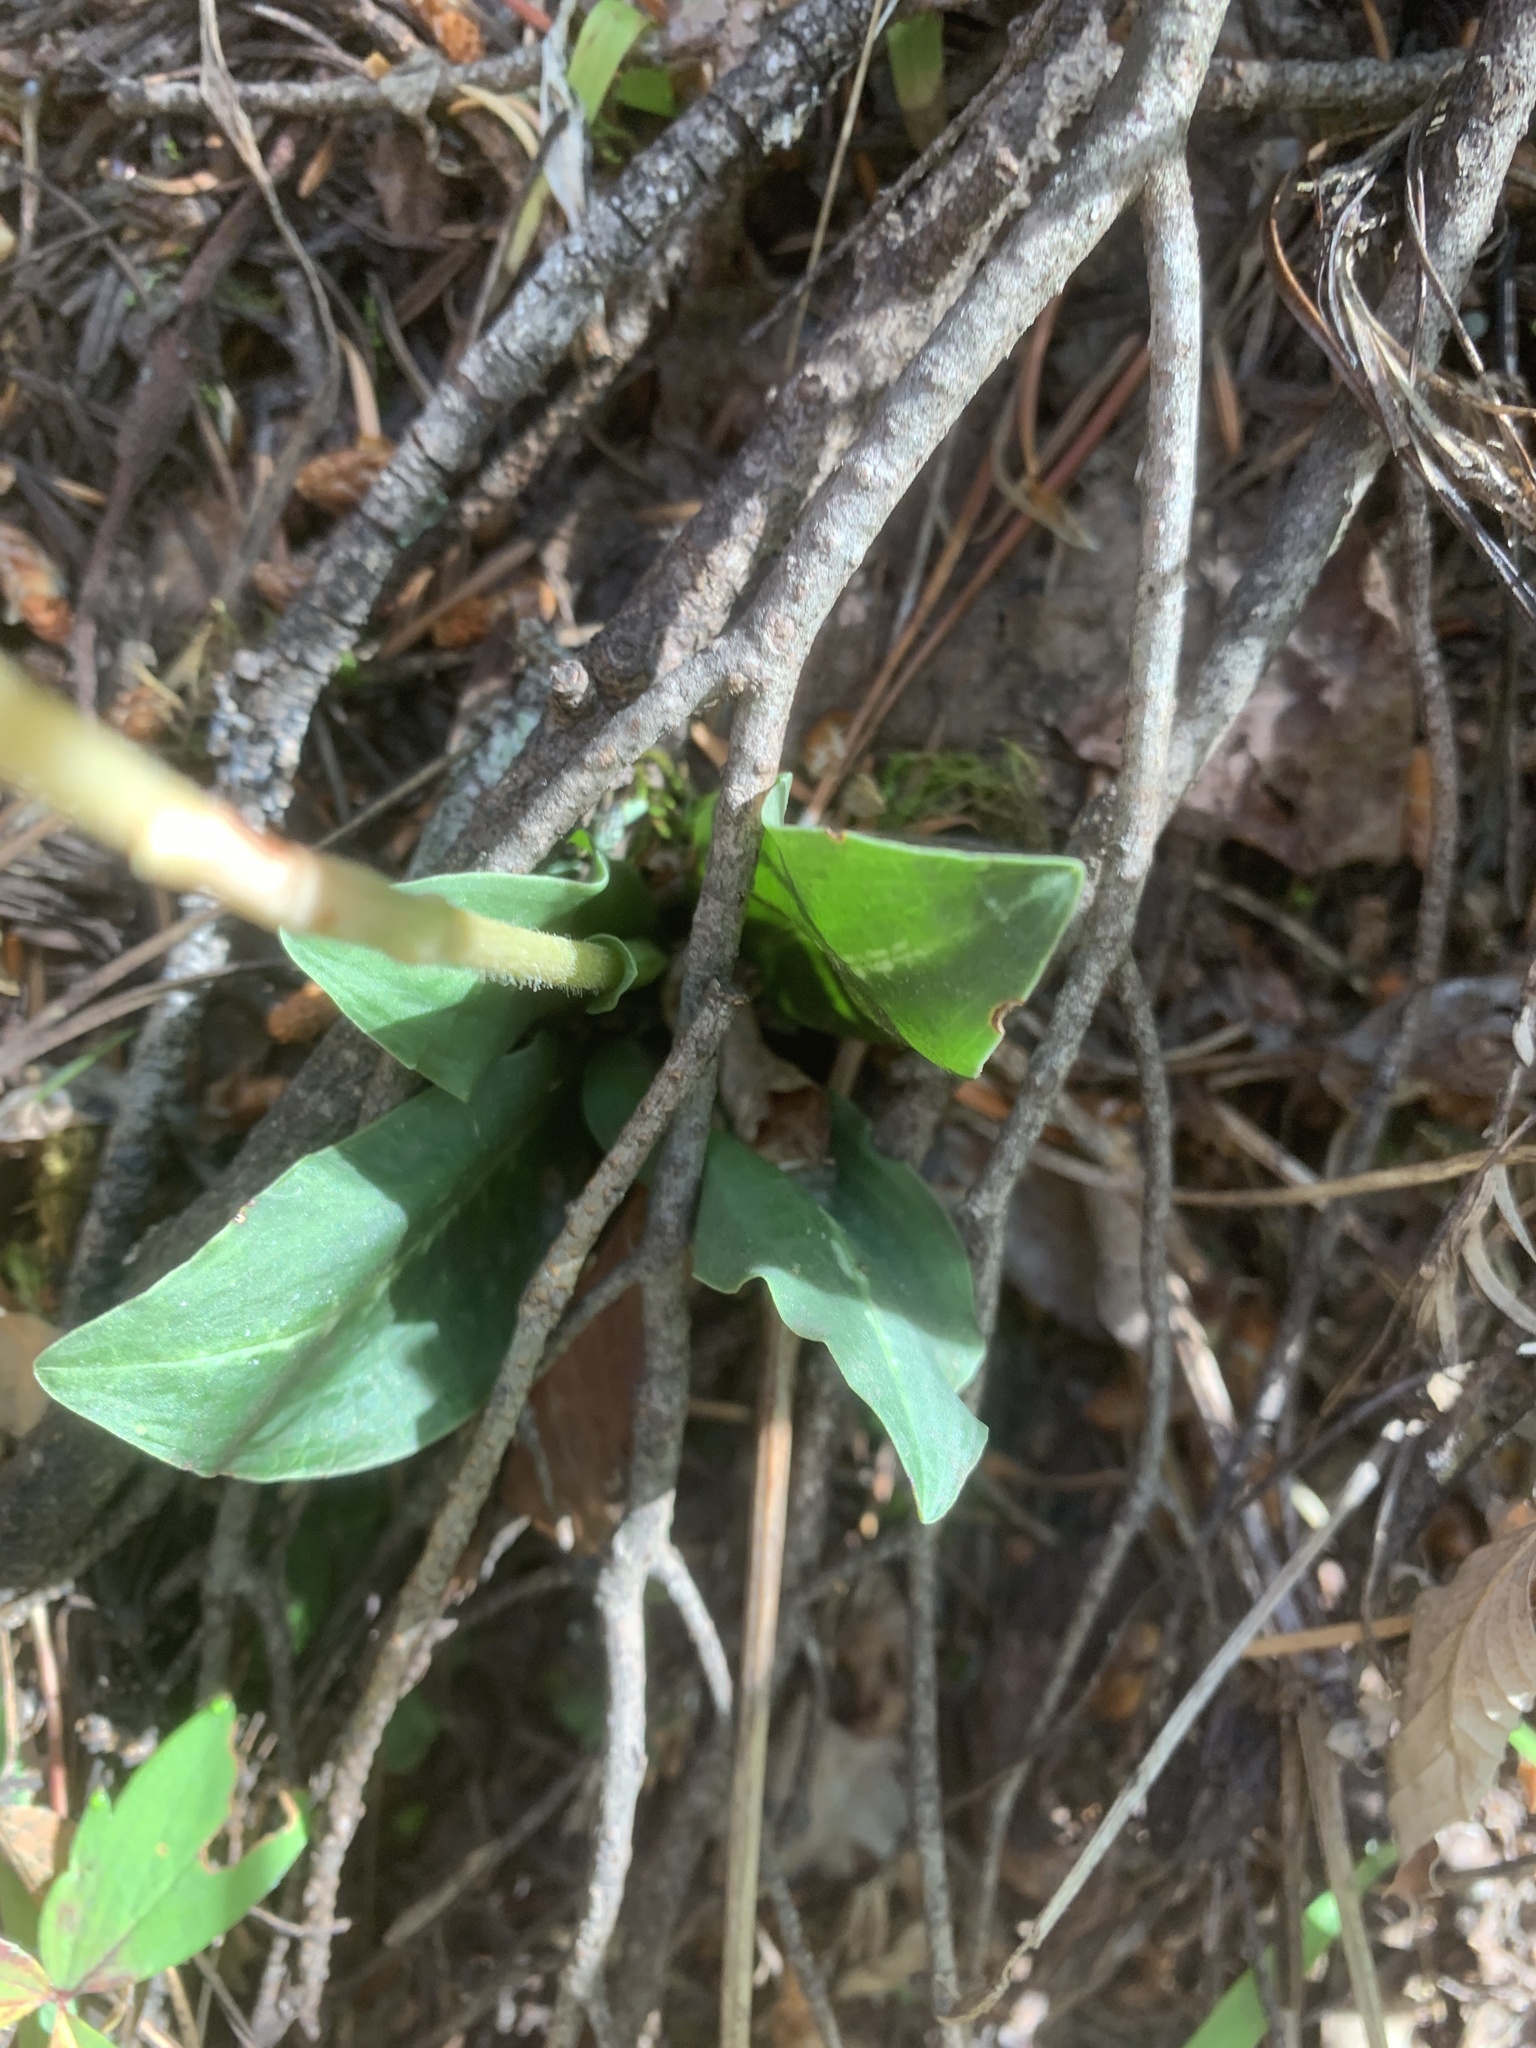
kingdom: Plantae
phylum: Tracheophyta
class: Liliopsida
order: Asparagales
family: Orchidaceae
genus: Goodyera
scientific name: Goodyera oblongifolia
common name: Giant rattlesnake-plantain
